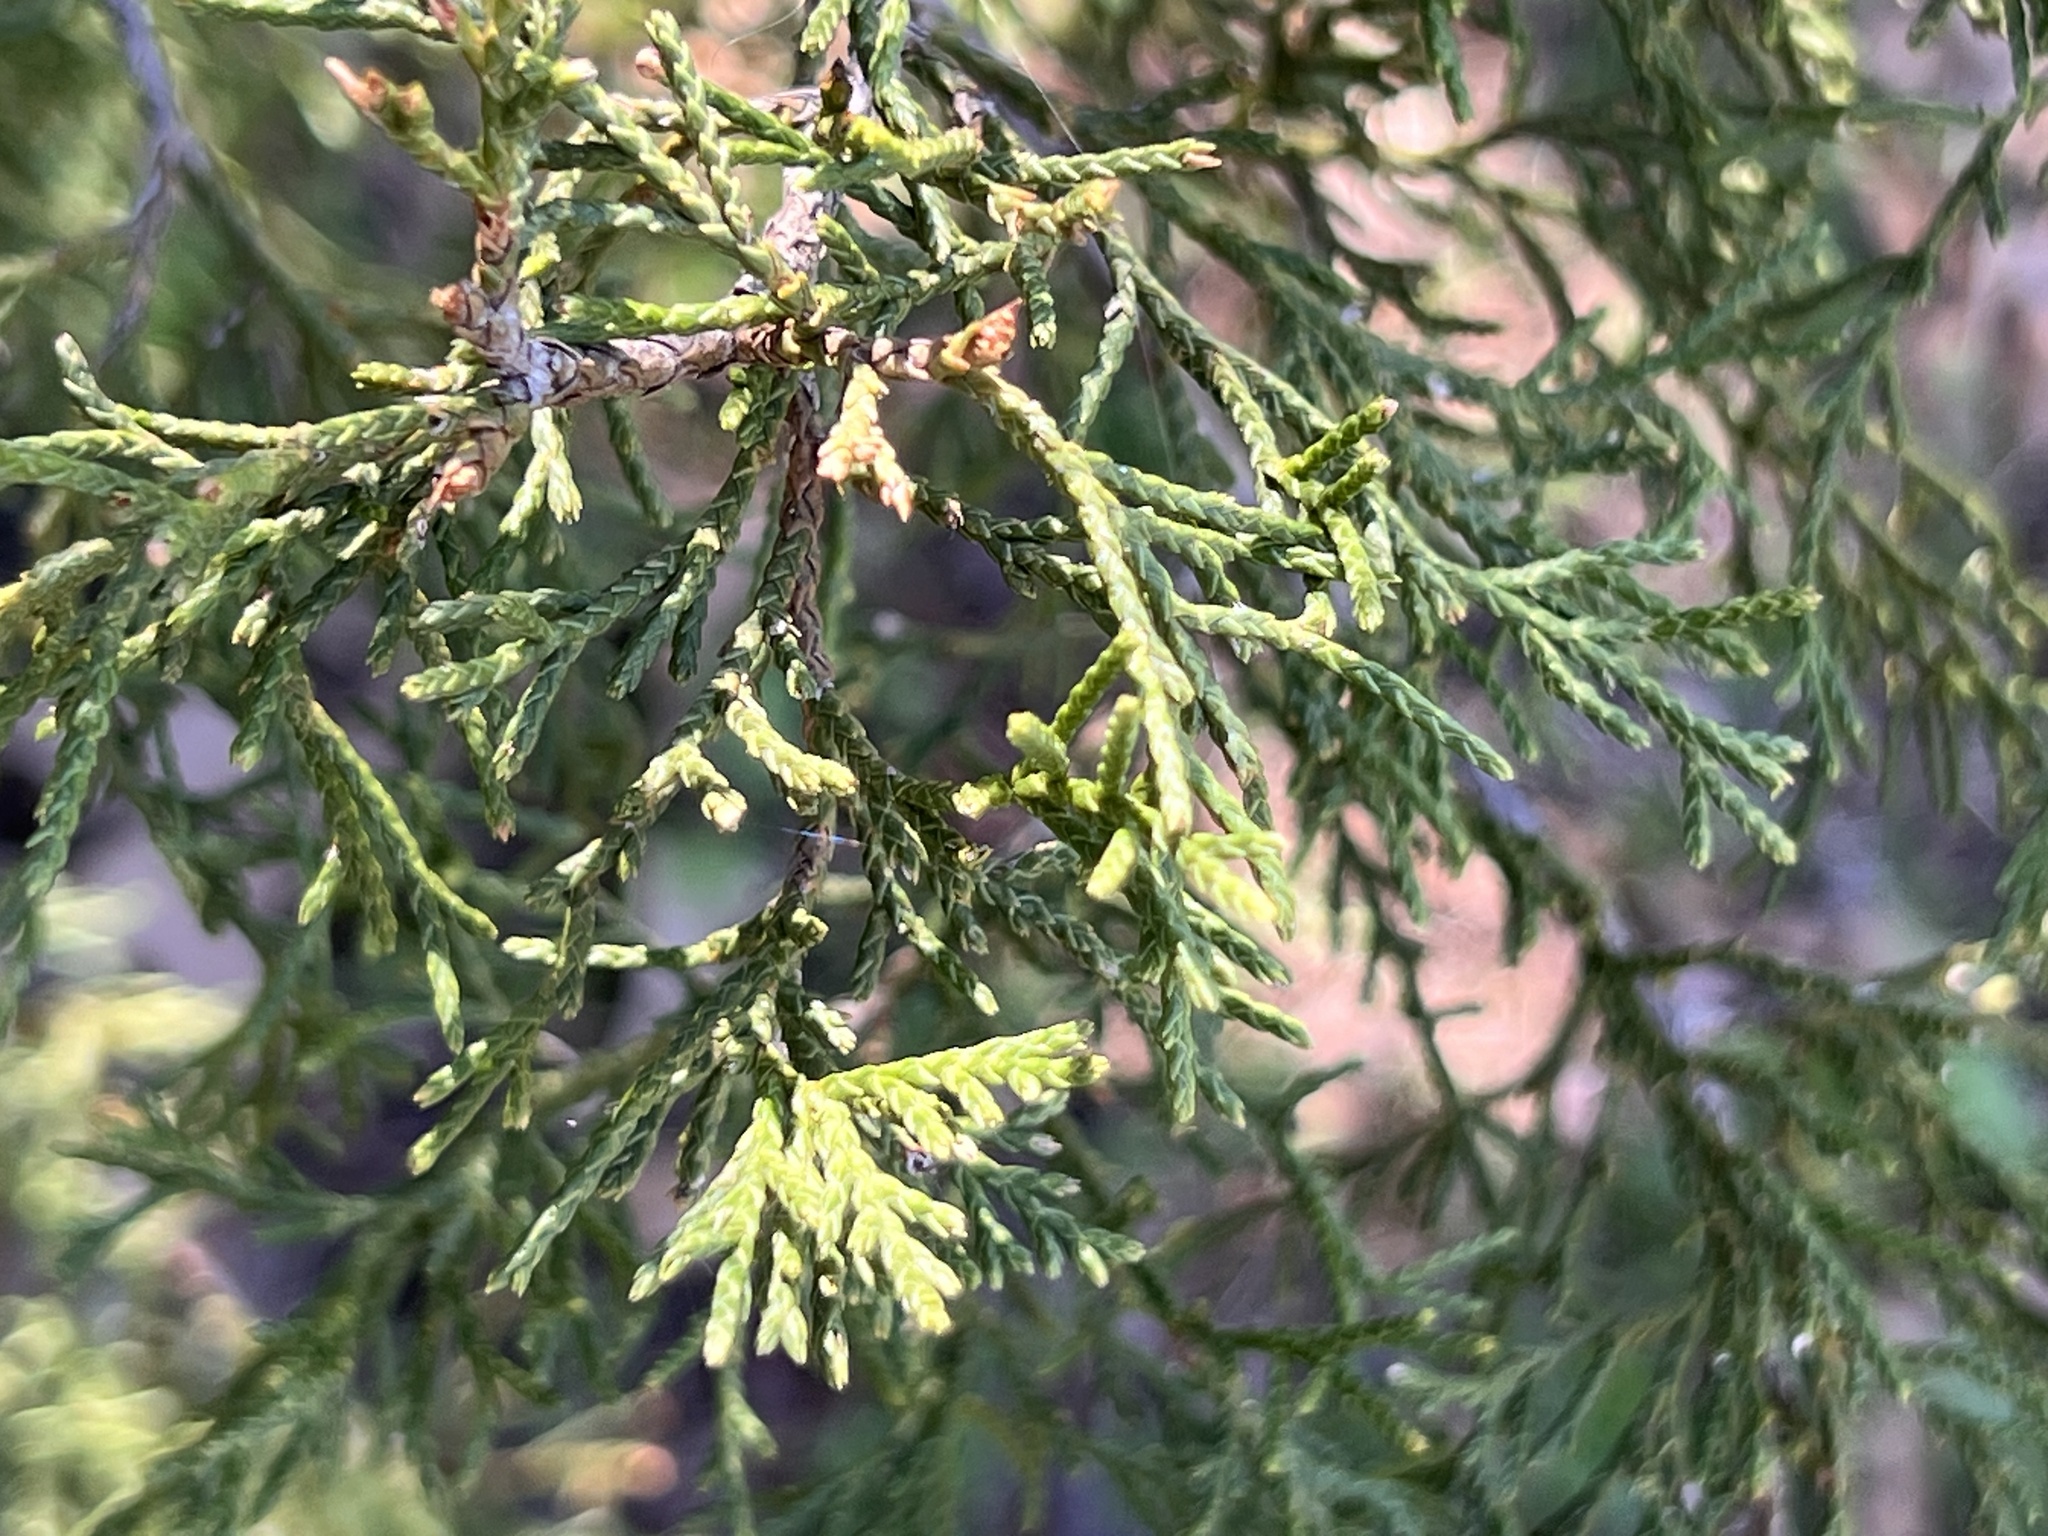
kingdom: Plantae
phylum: Tracheophyta
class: Pinopsida
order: Pinales
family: Cupressaceae
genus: Juniperus
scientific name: Juniperus virginiana
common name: Red juniper
